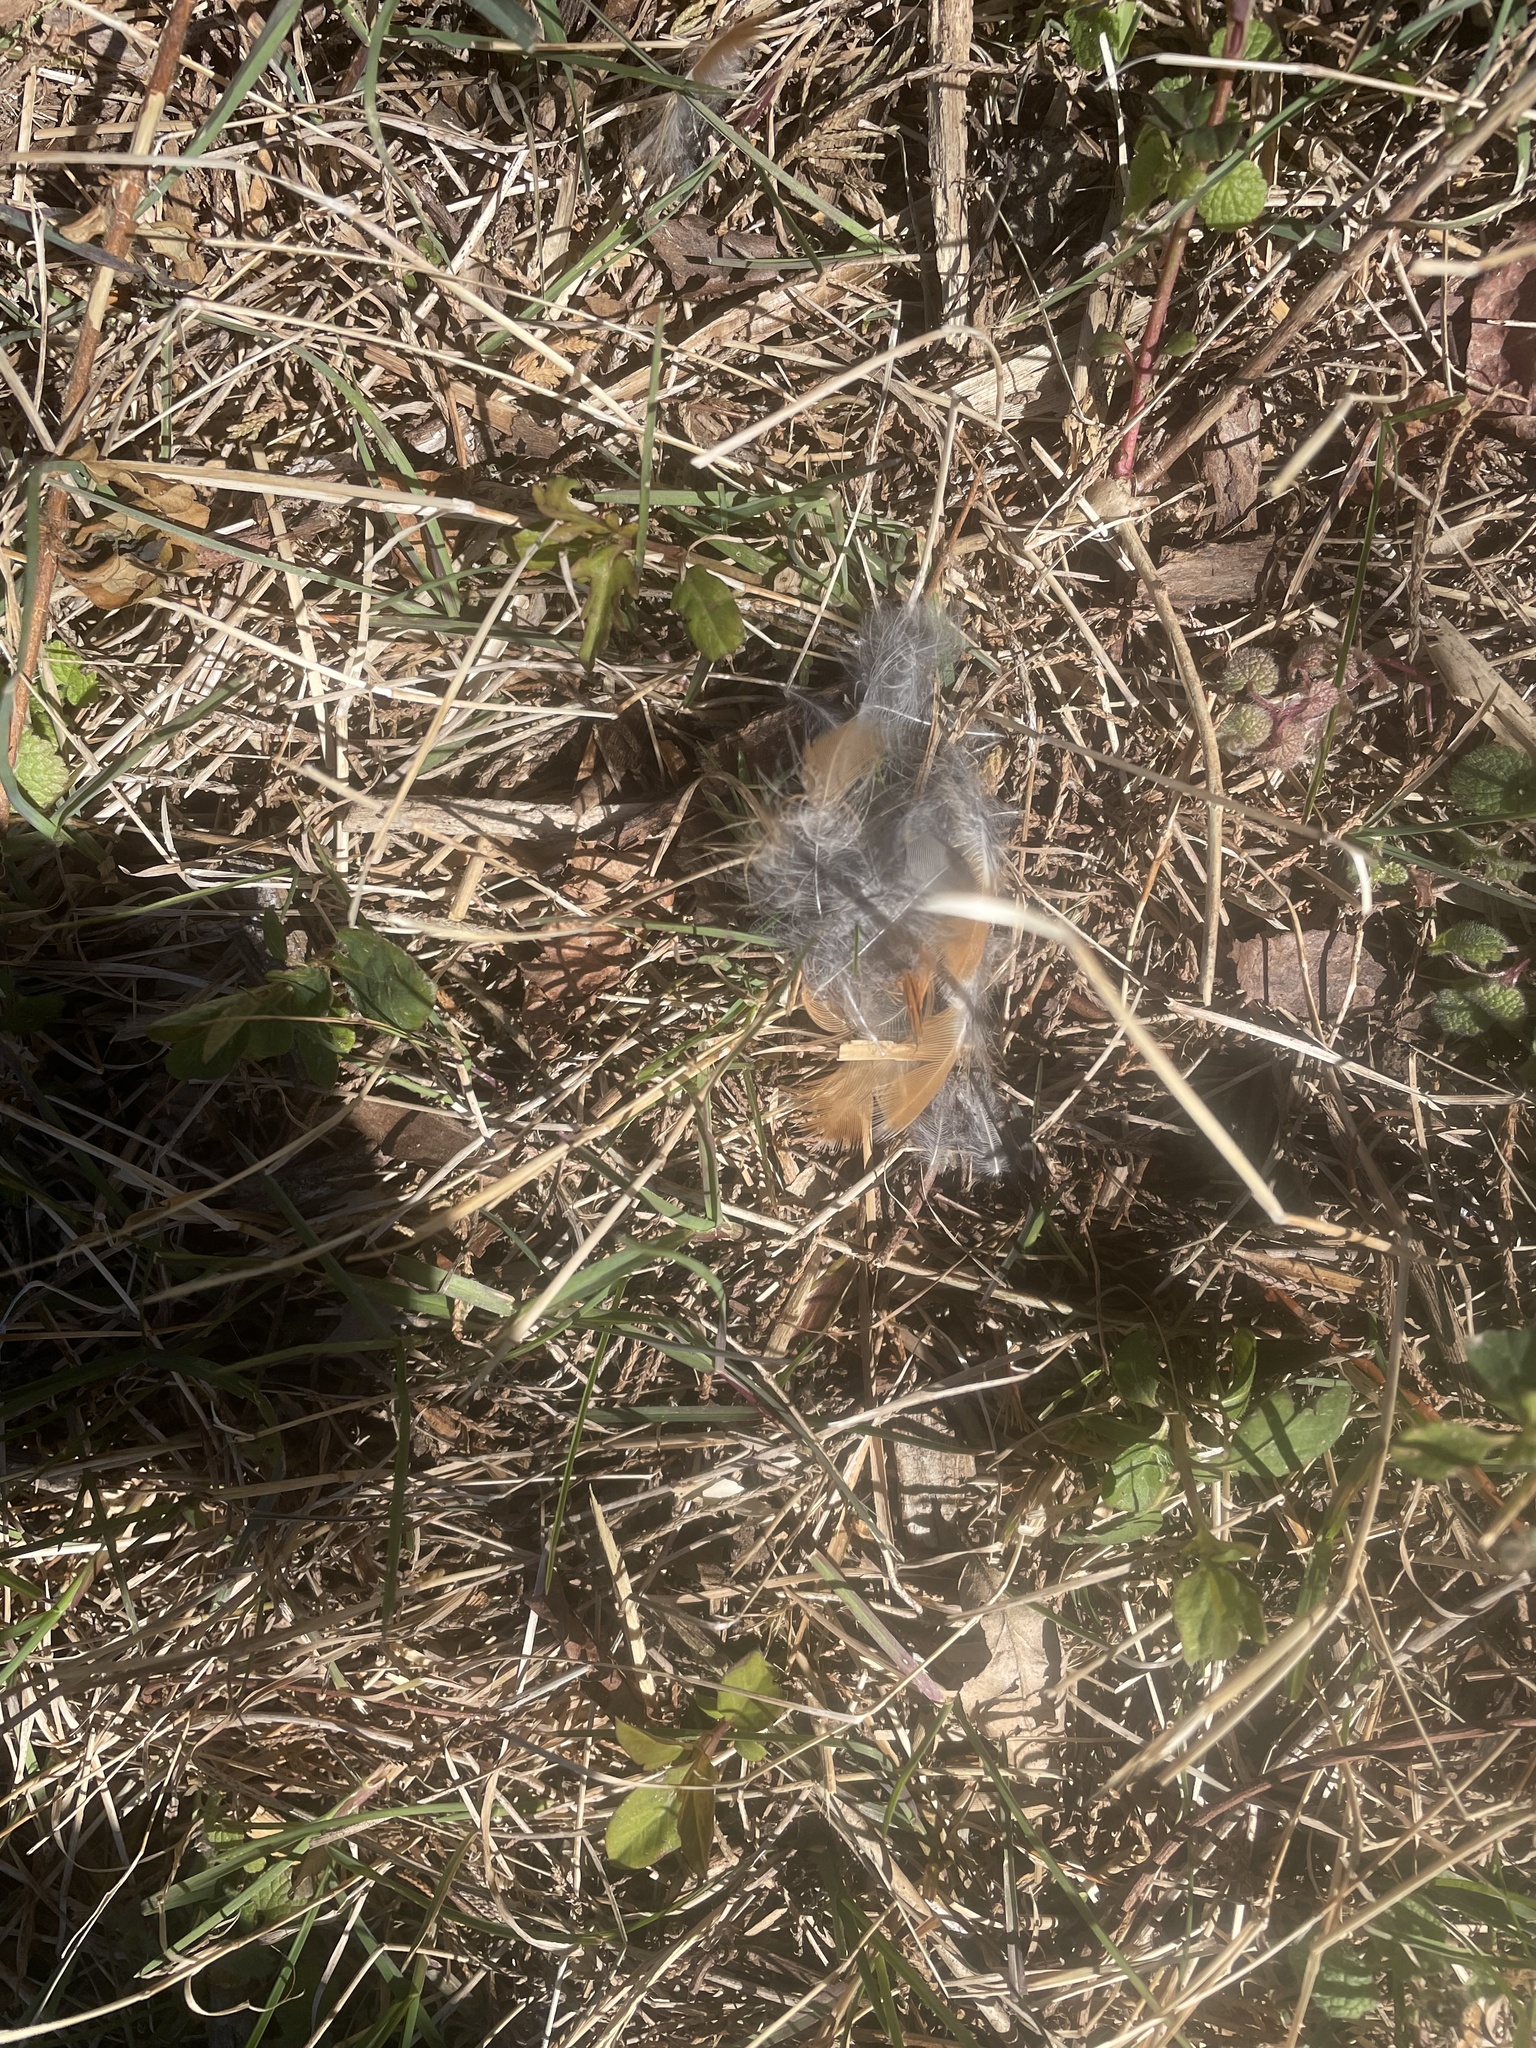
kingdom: Animalia
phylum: Chordata
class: Aves
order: Passeriformes
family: Turdidae
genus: Turdus
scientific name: Turdus migratorius
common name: American robin
